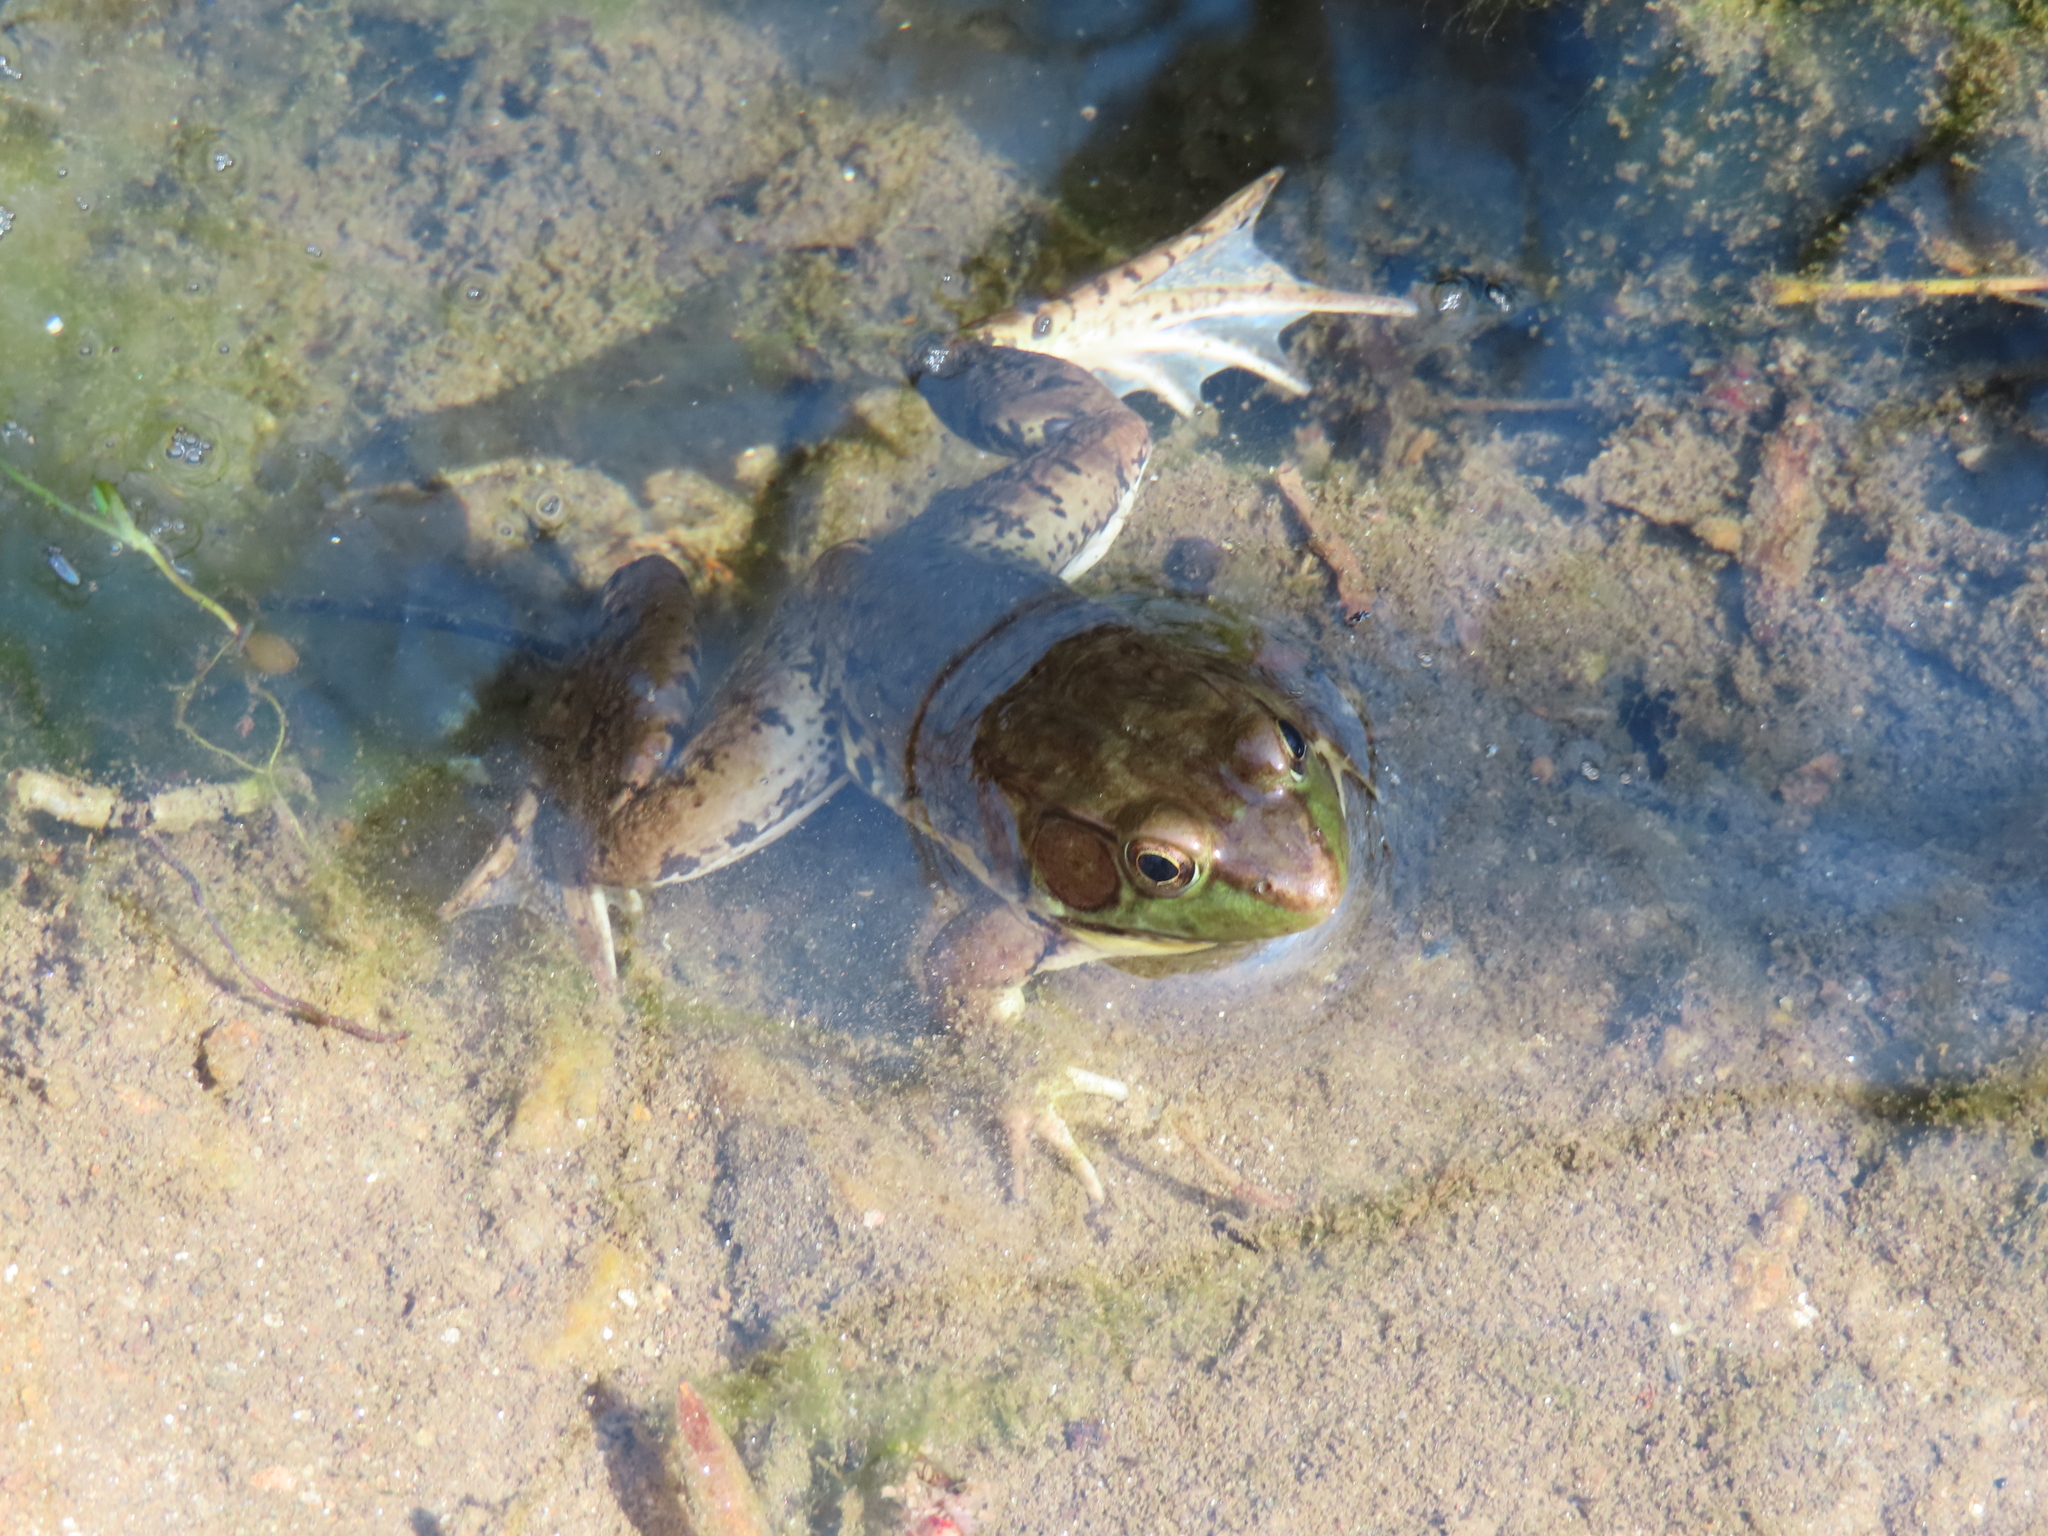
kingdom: Animalia
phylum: Chordata
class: Amphibia
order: Anura
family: Ranidae
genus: Lithobates
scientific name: Lithobates clamitans
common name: Green frog
